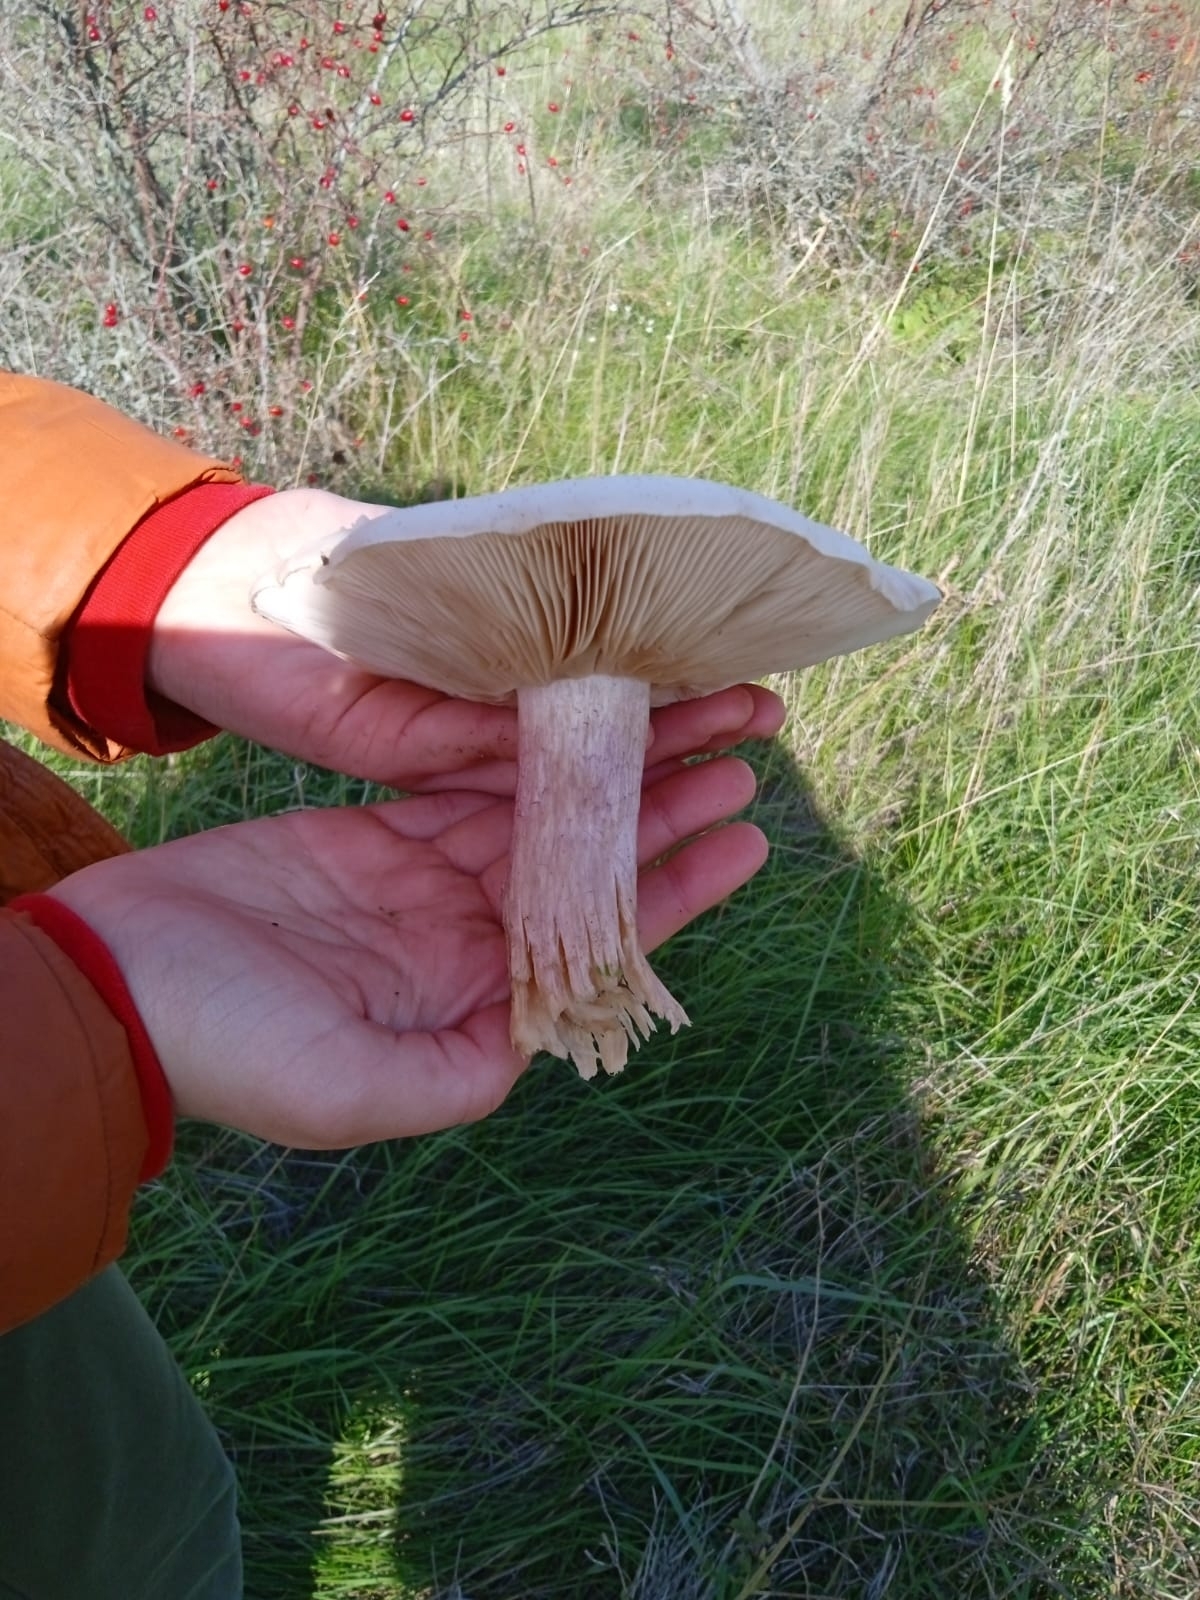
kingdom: Fungi
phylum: Basidiomycota
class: Agaricomycetes
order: Agaricales
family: Omphalotaceae
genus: Collybiopsis
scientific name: Collybiopsis peronata
